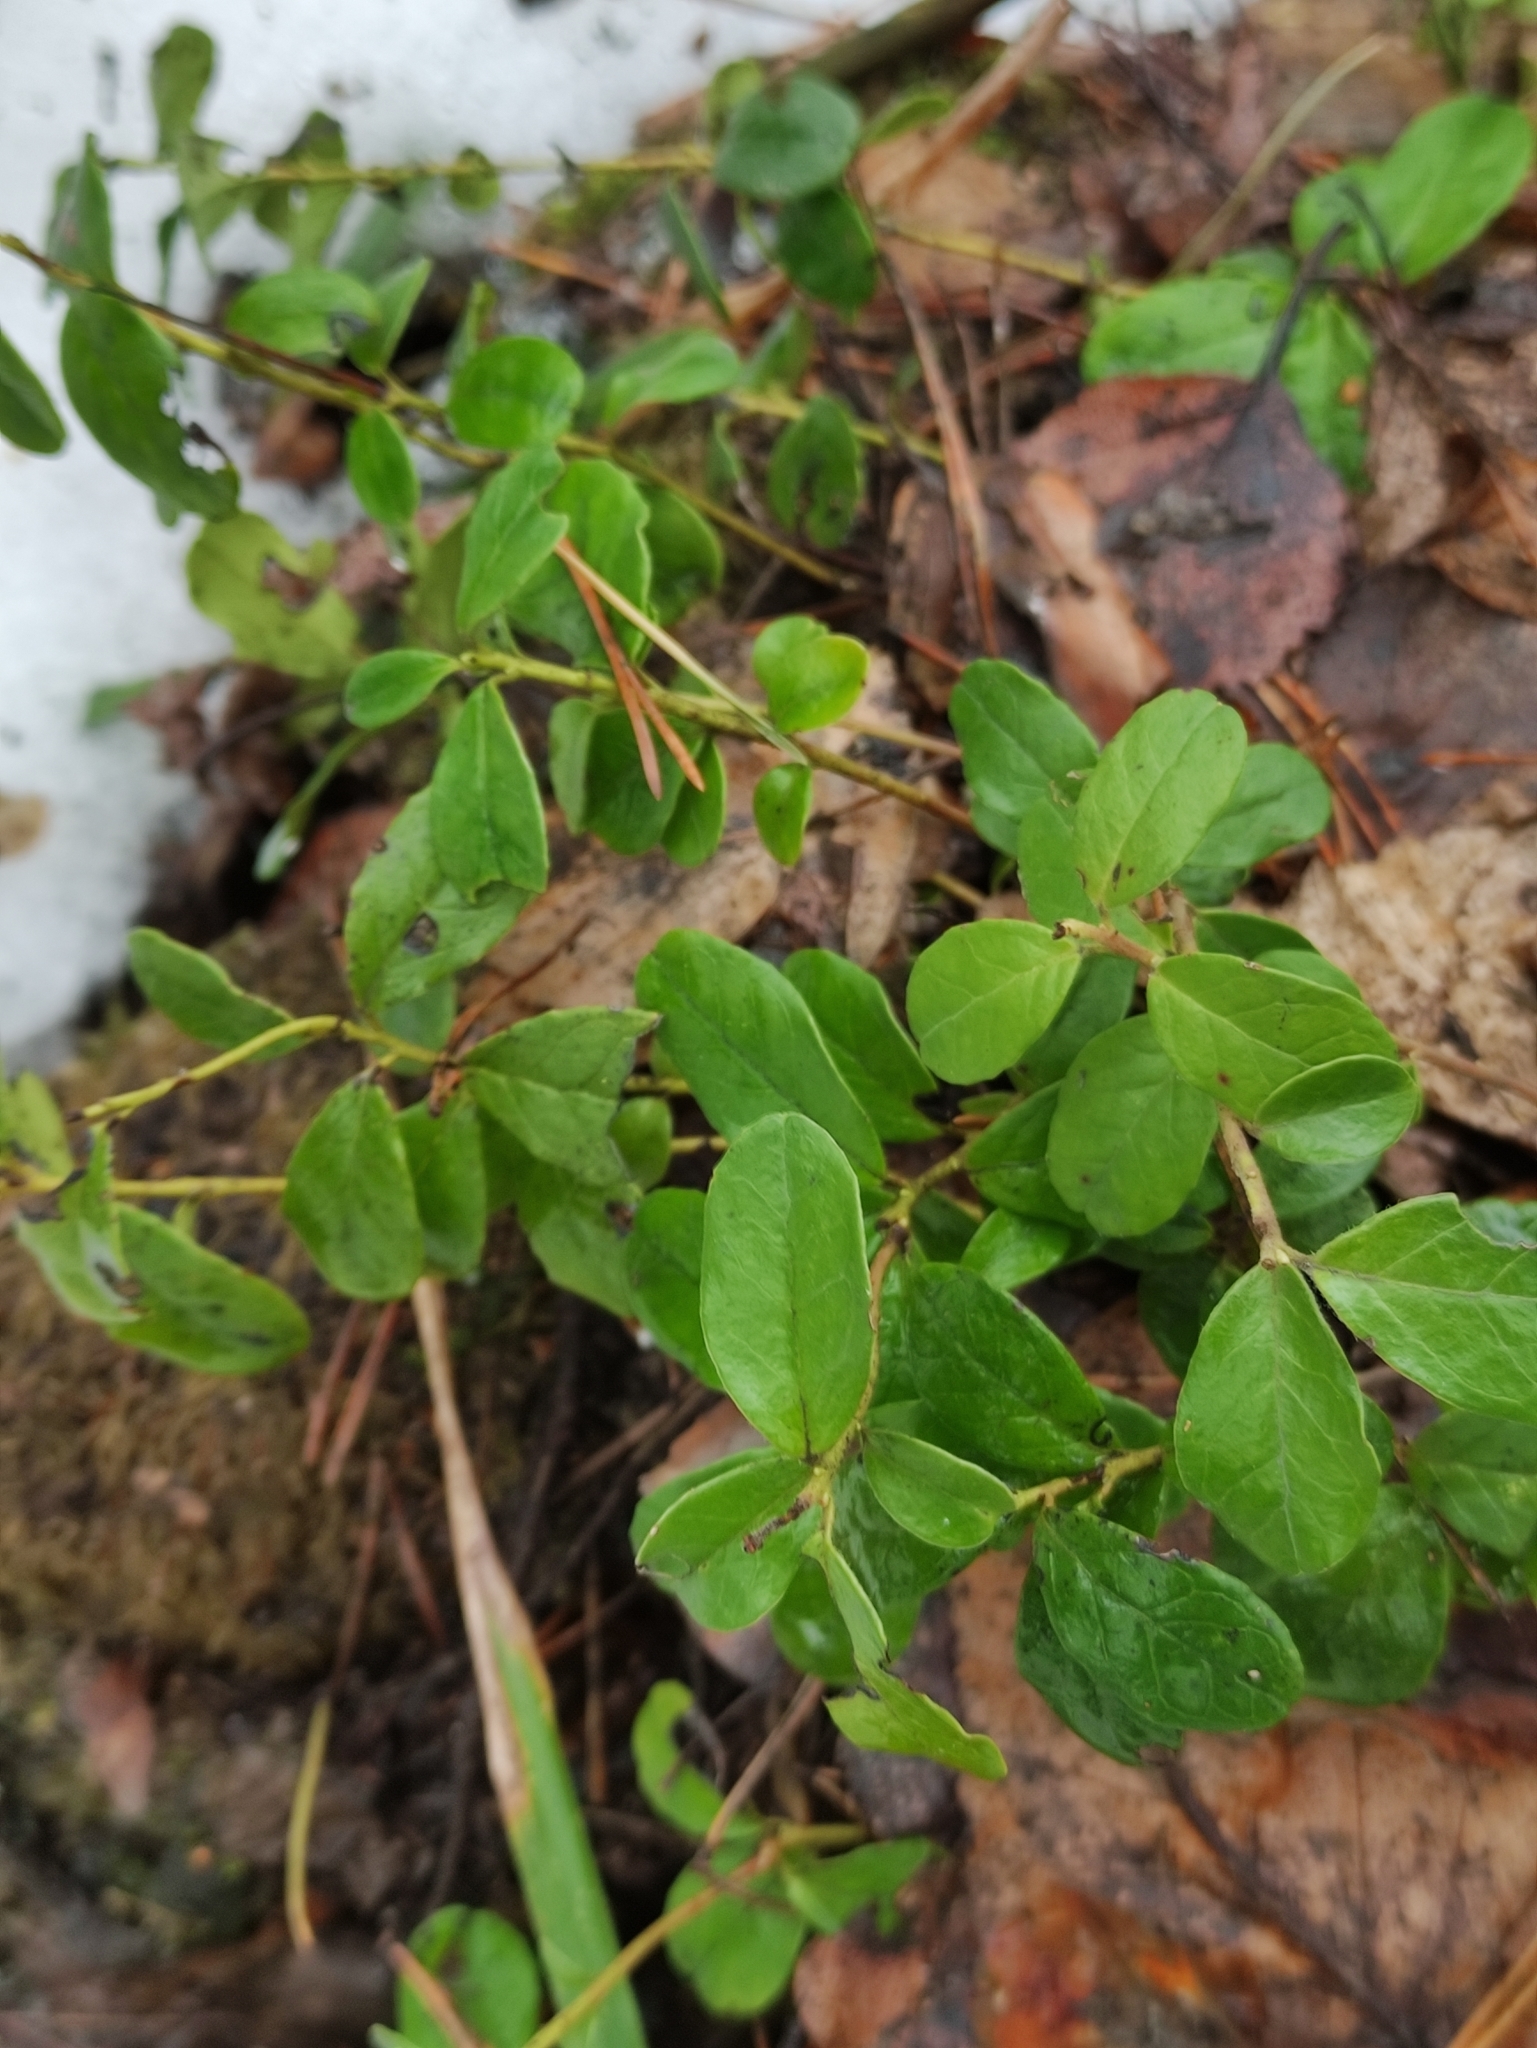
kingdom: Plantae
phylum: Tracheophyta
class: Magnoliopsida
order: Ericales
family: Ericaceae
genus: Vaccinium
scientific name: Vaccinium vitis-idaea
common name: Cowberry
